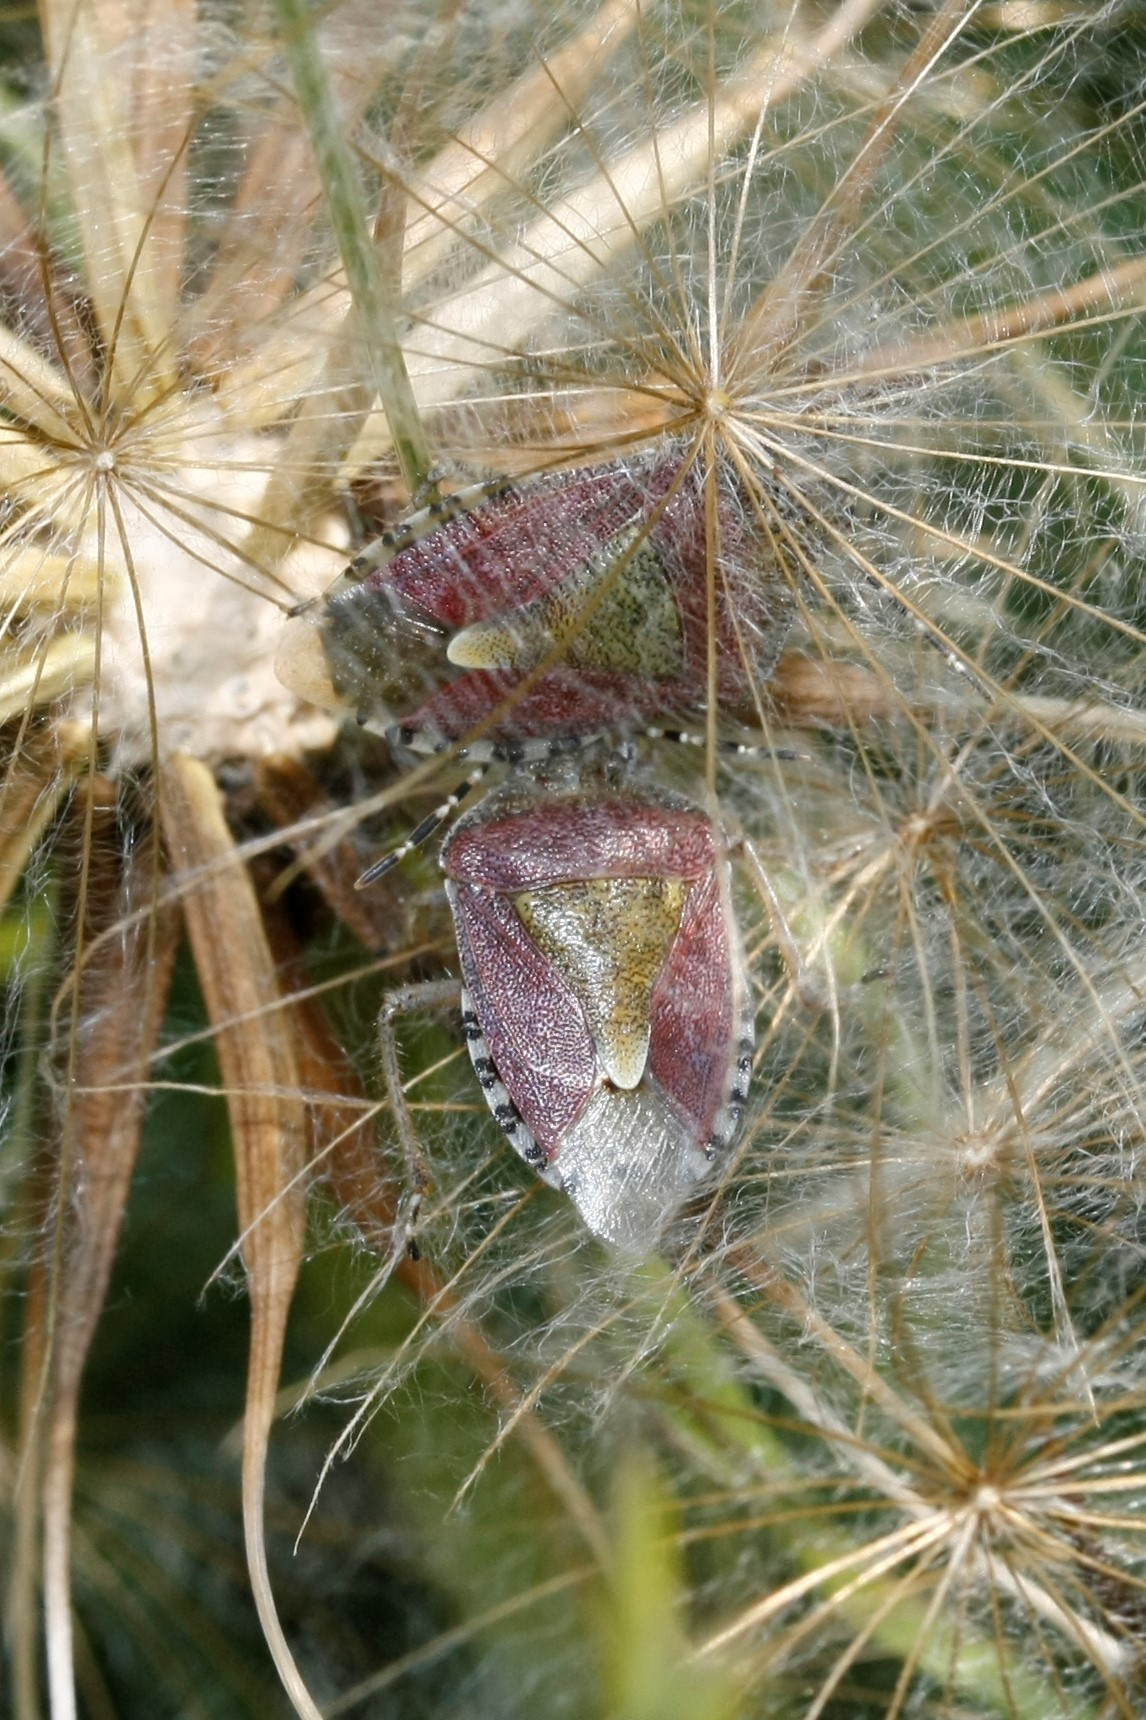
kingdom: Animalia
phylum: Arthropoda
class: Insecta
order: Hemiptera
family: Pentatomidae
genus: Dolycoris
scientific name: Dolycoris baccarum
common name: Sloe bug
